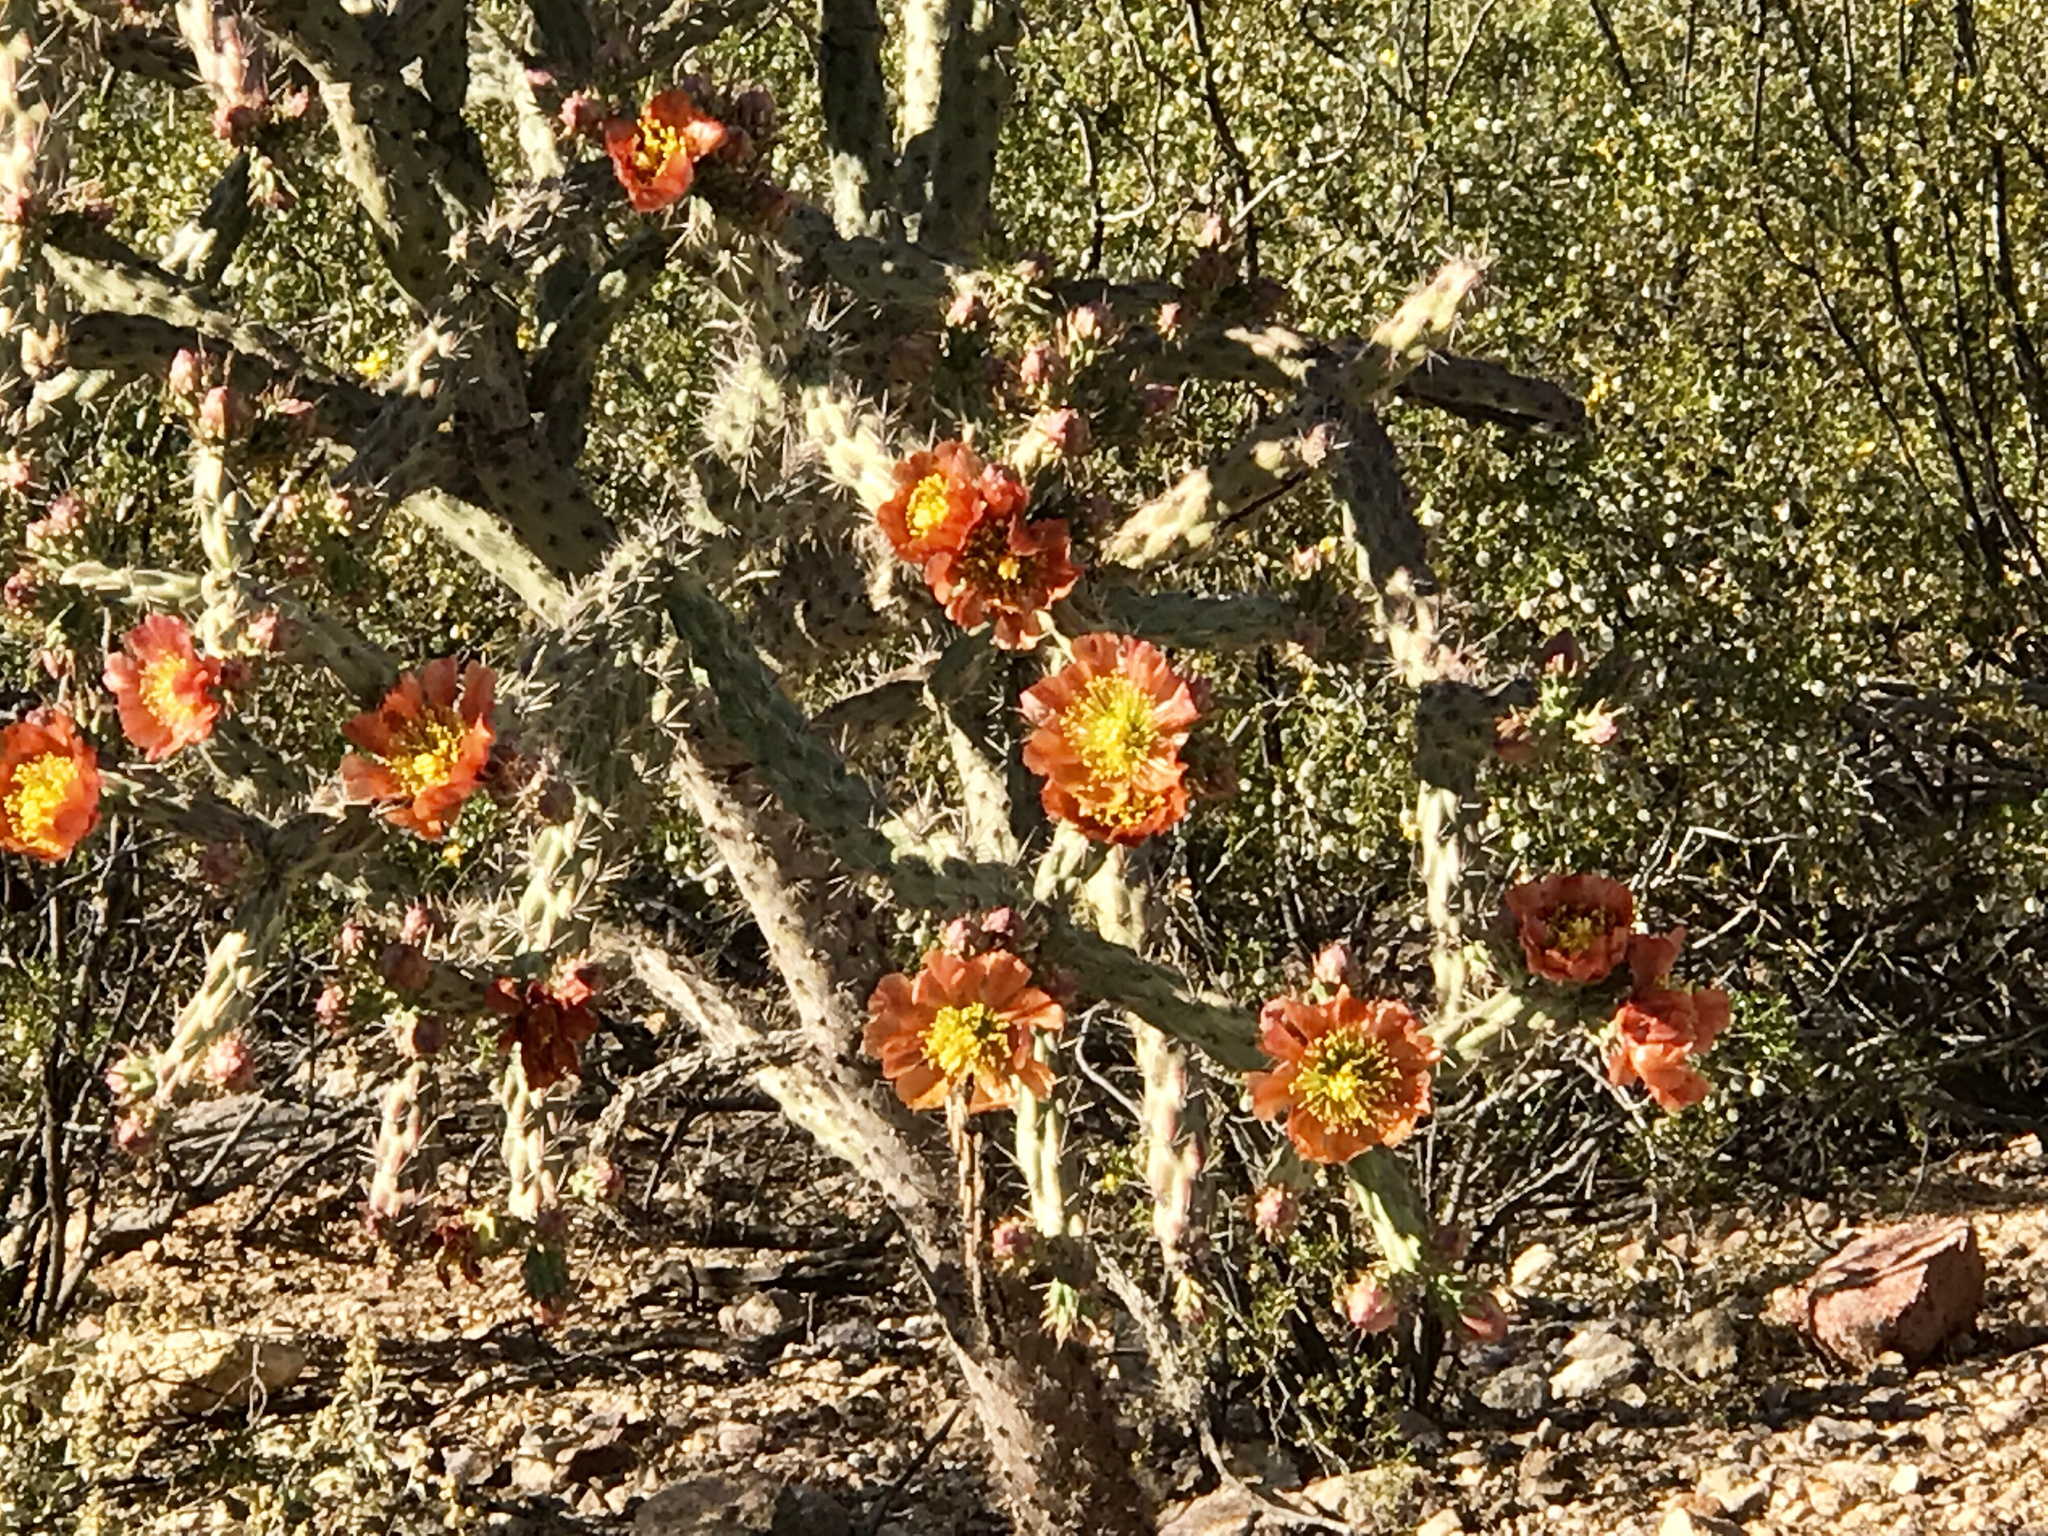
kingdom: Plantae
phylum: Tracheophyta
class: Magnoliopsida
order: Caryophyllales
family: Cactaceae
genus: Cylindropuntia
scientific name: Cylindropuntia acanthocarpa
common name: Buckhorn cholla
